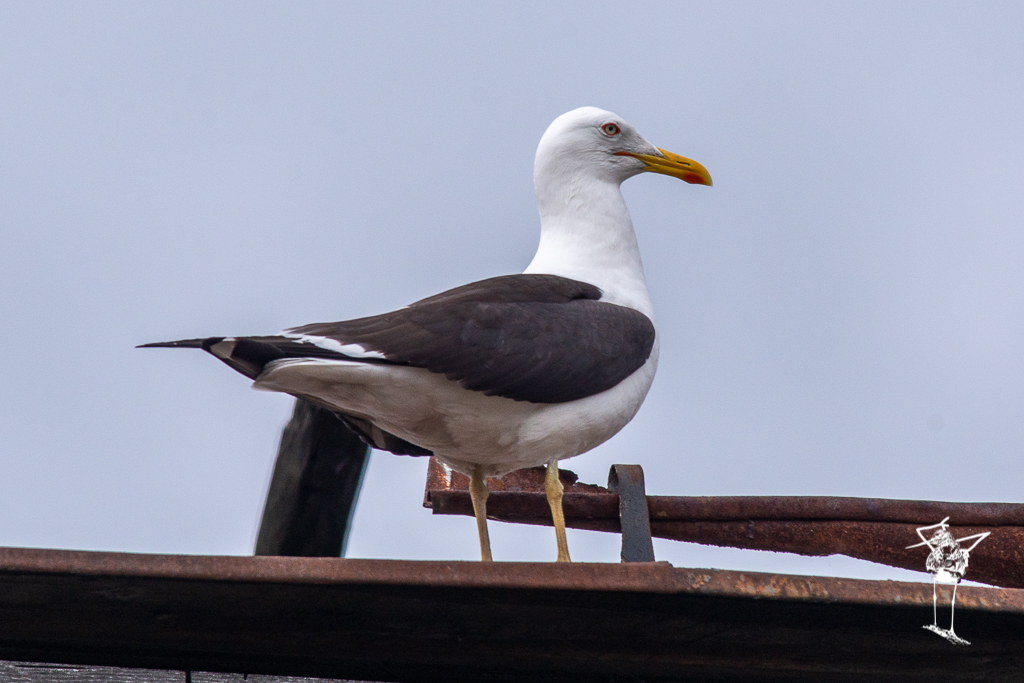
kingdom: Animalia
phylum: Chordata
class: Aves
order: Charadriiformes
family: Laridae
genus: Larus
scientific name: Larus fuscus
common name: Lesser black-backed gull
